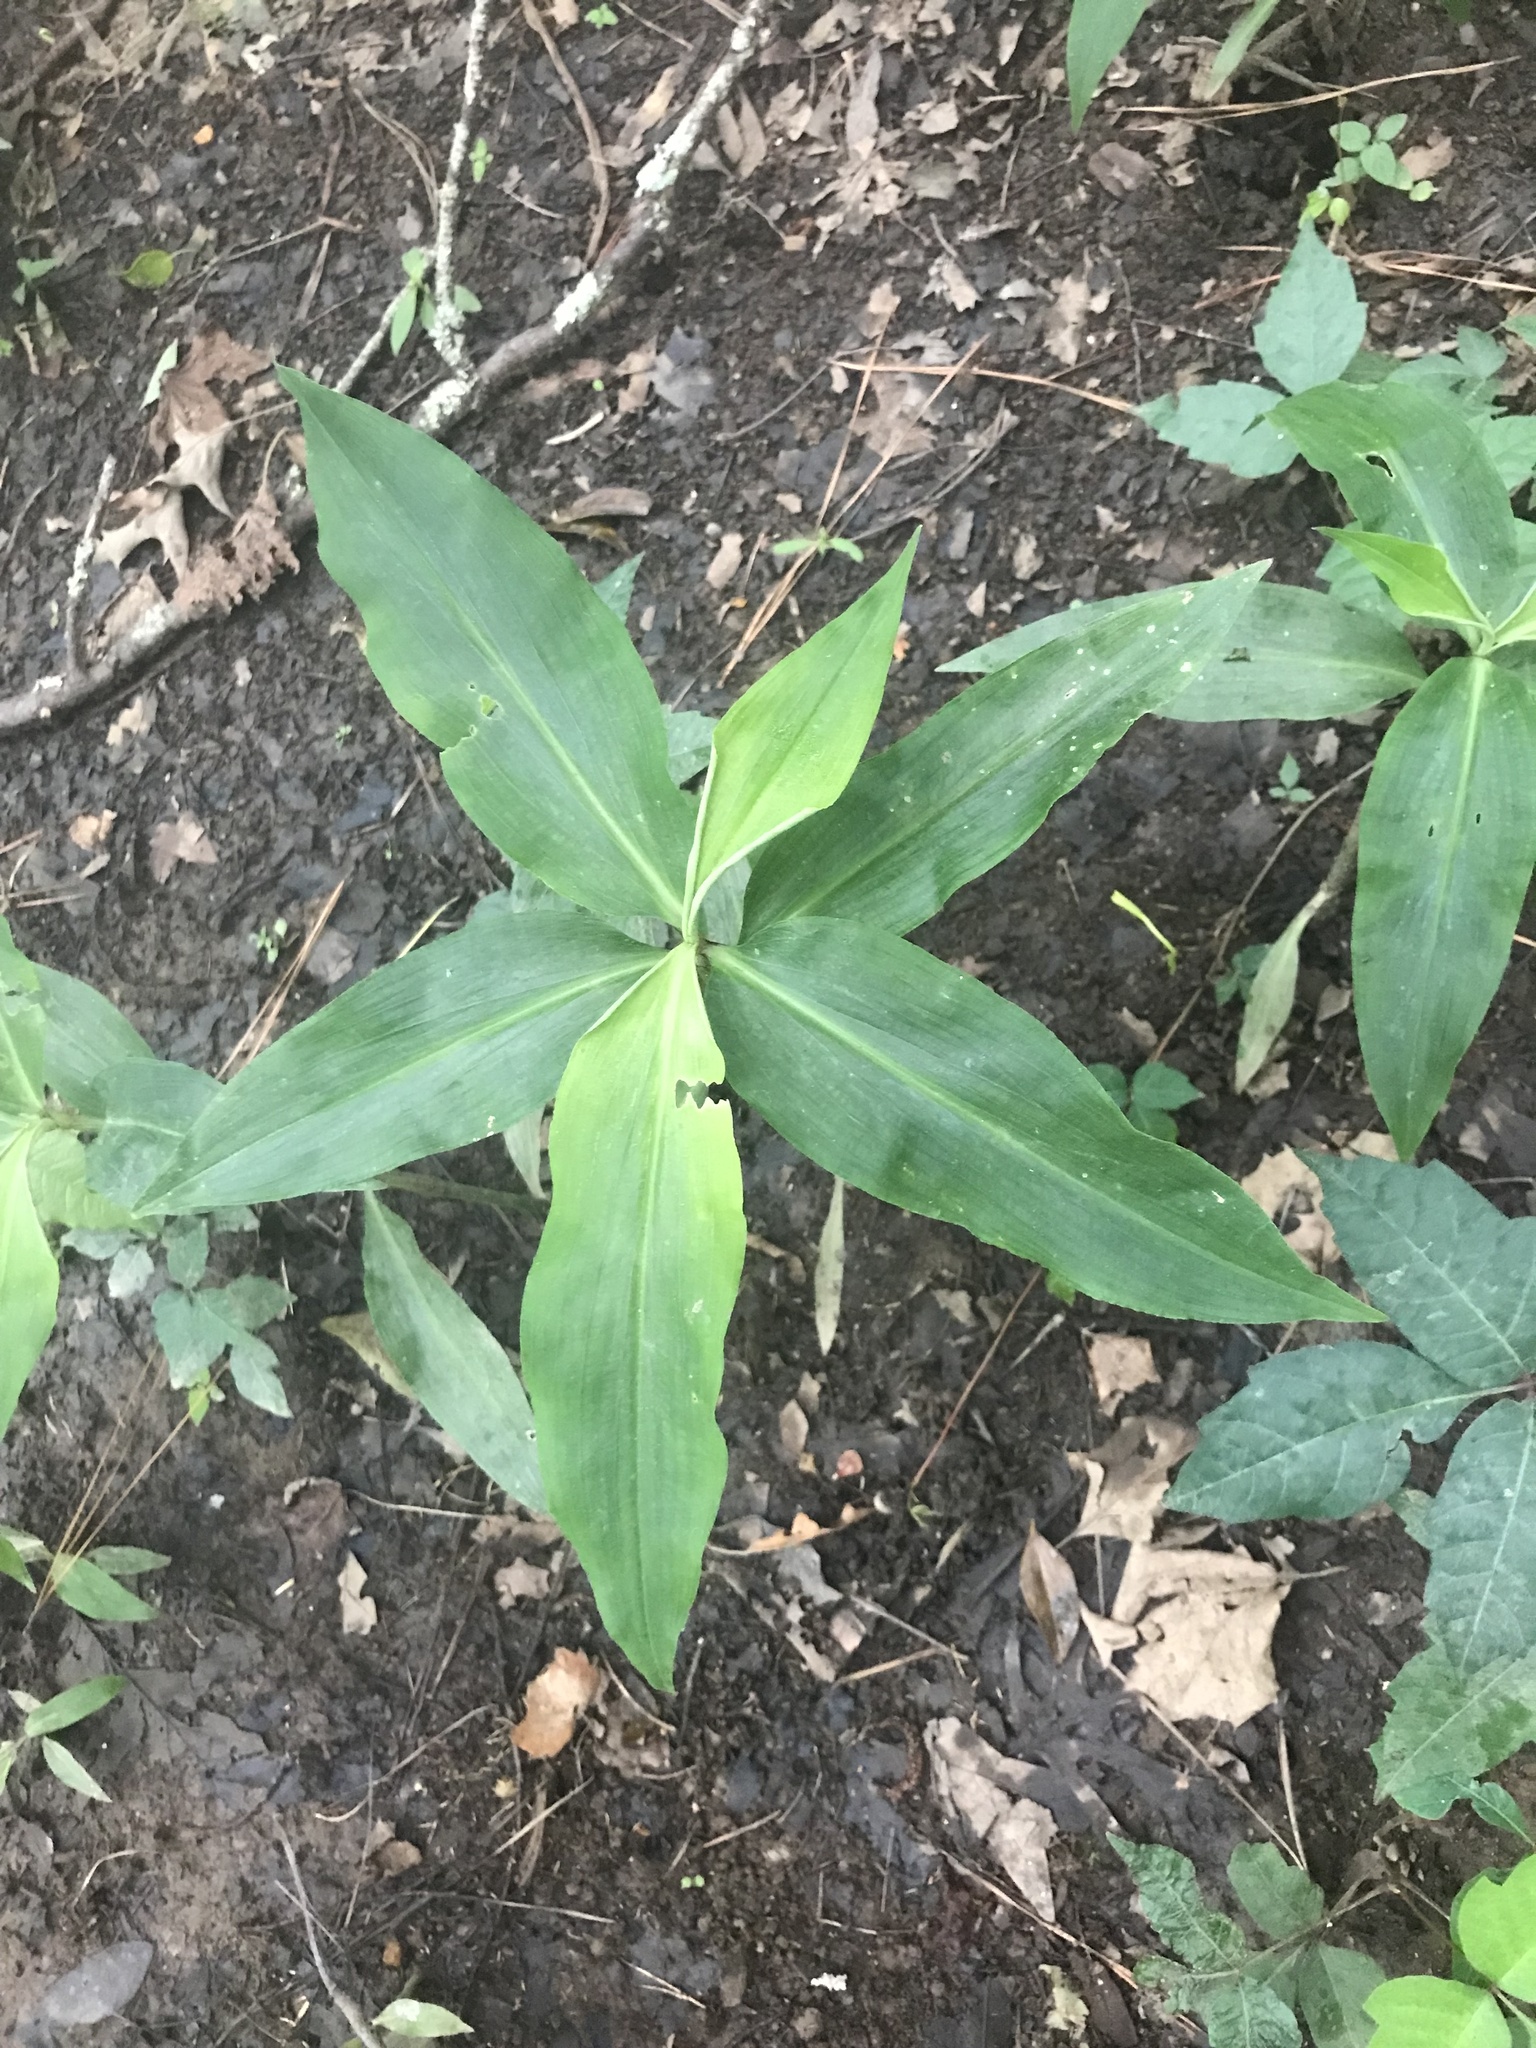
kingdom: Plantae
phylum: Tracheophyta
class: Liliopsida
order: Commelinales
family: Commelinaceae
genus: Commelina
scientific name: Commelina virginica
